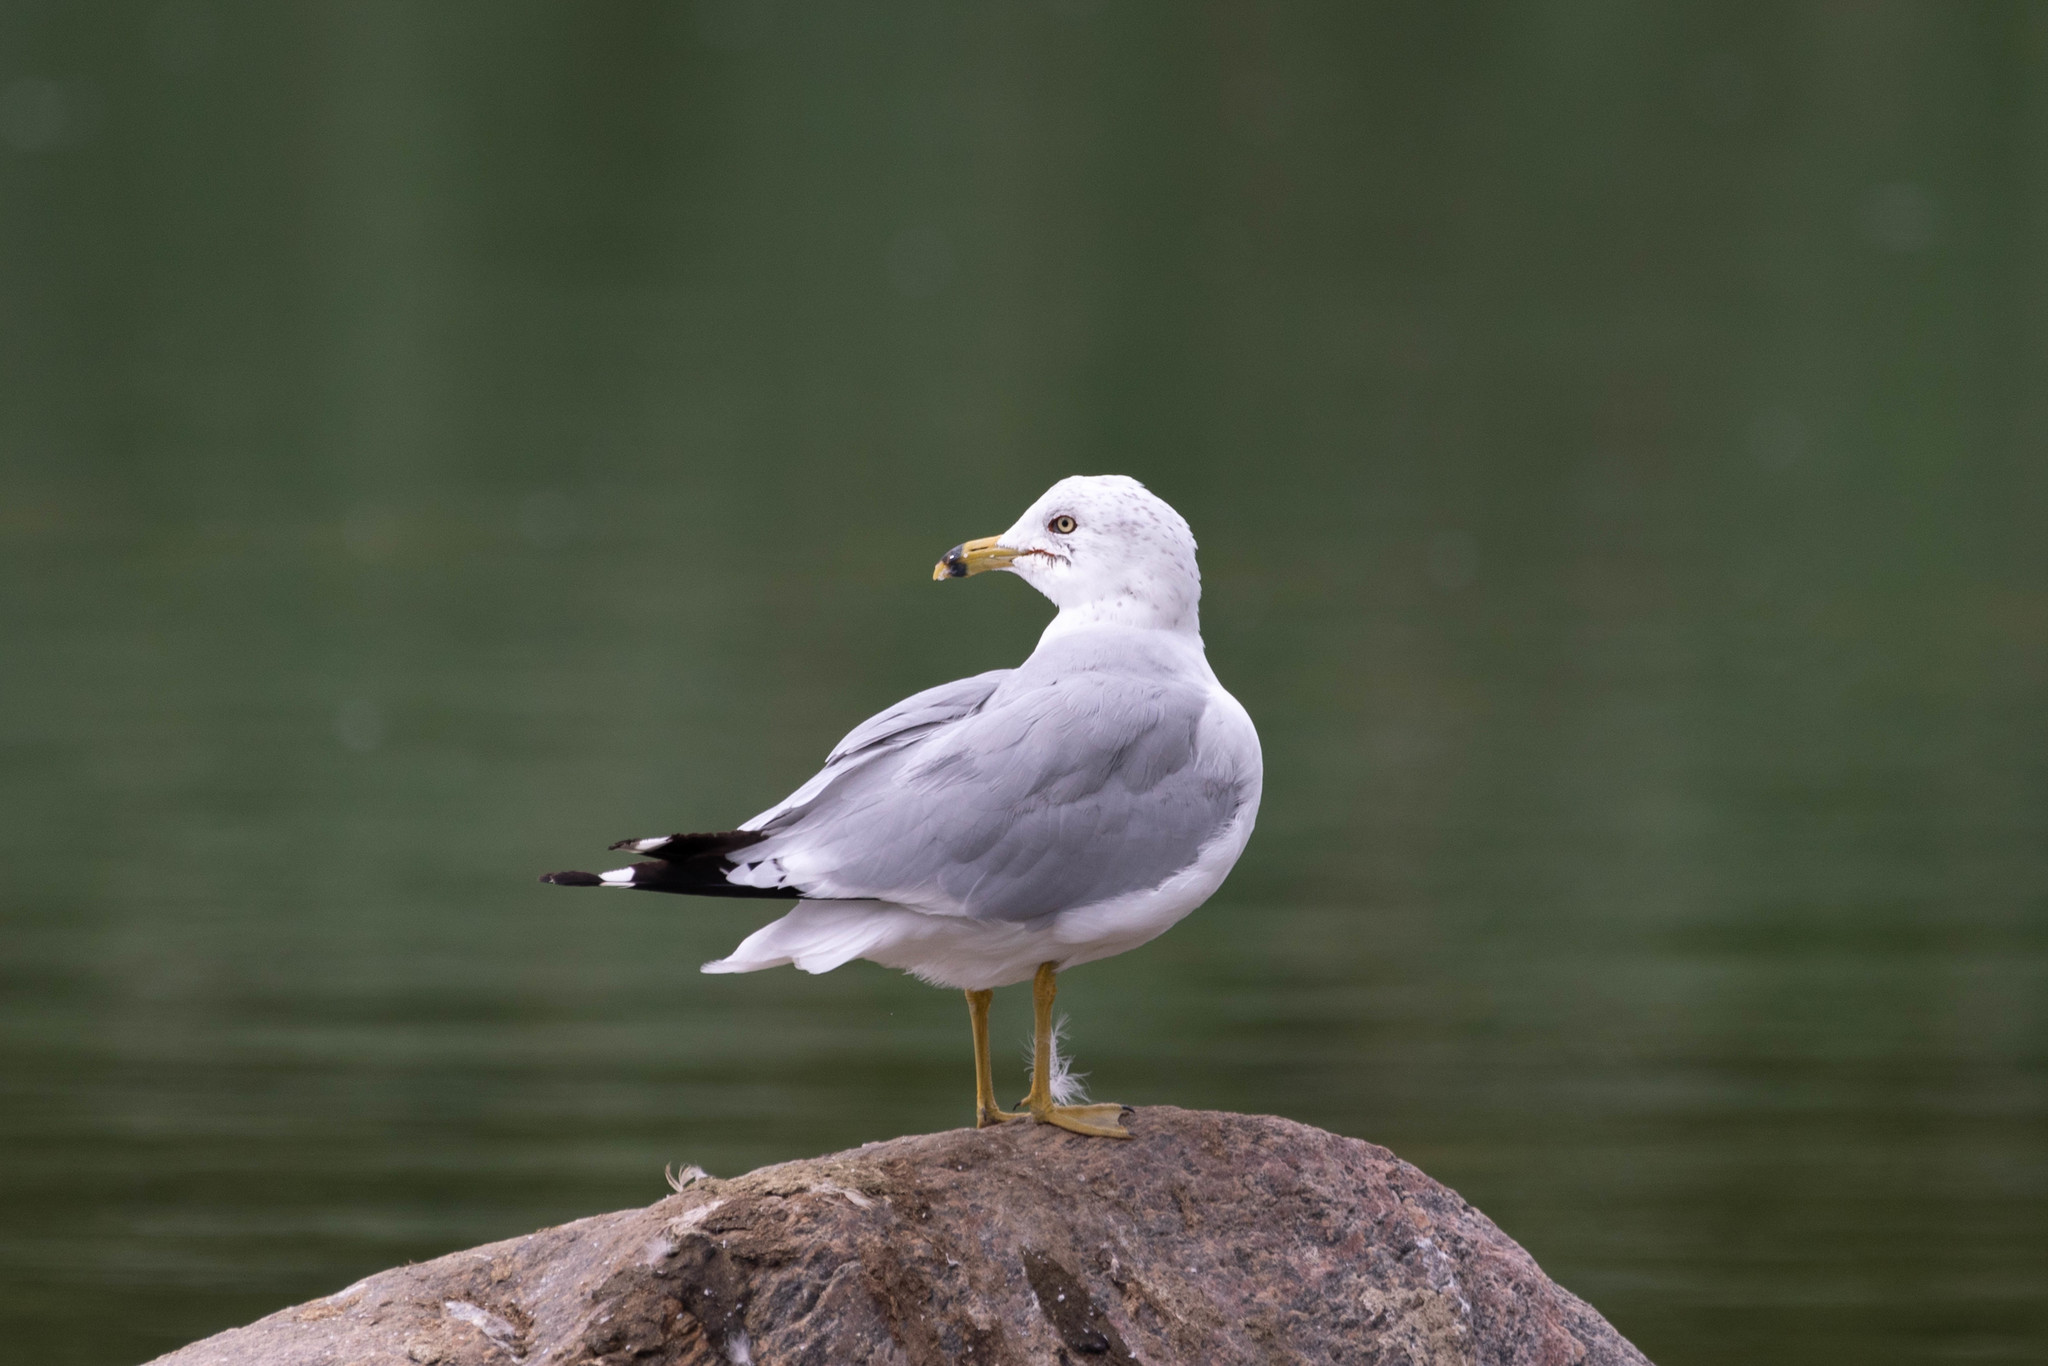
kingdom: Animalia
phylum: Chordata
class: Aves
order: Charadriiformes
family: Laridae
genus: Larus
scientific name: Larus delawarensis
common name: Ring-billed gull
